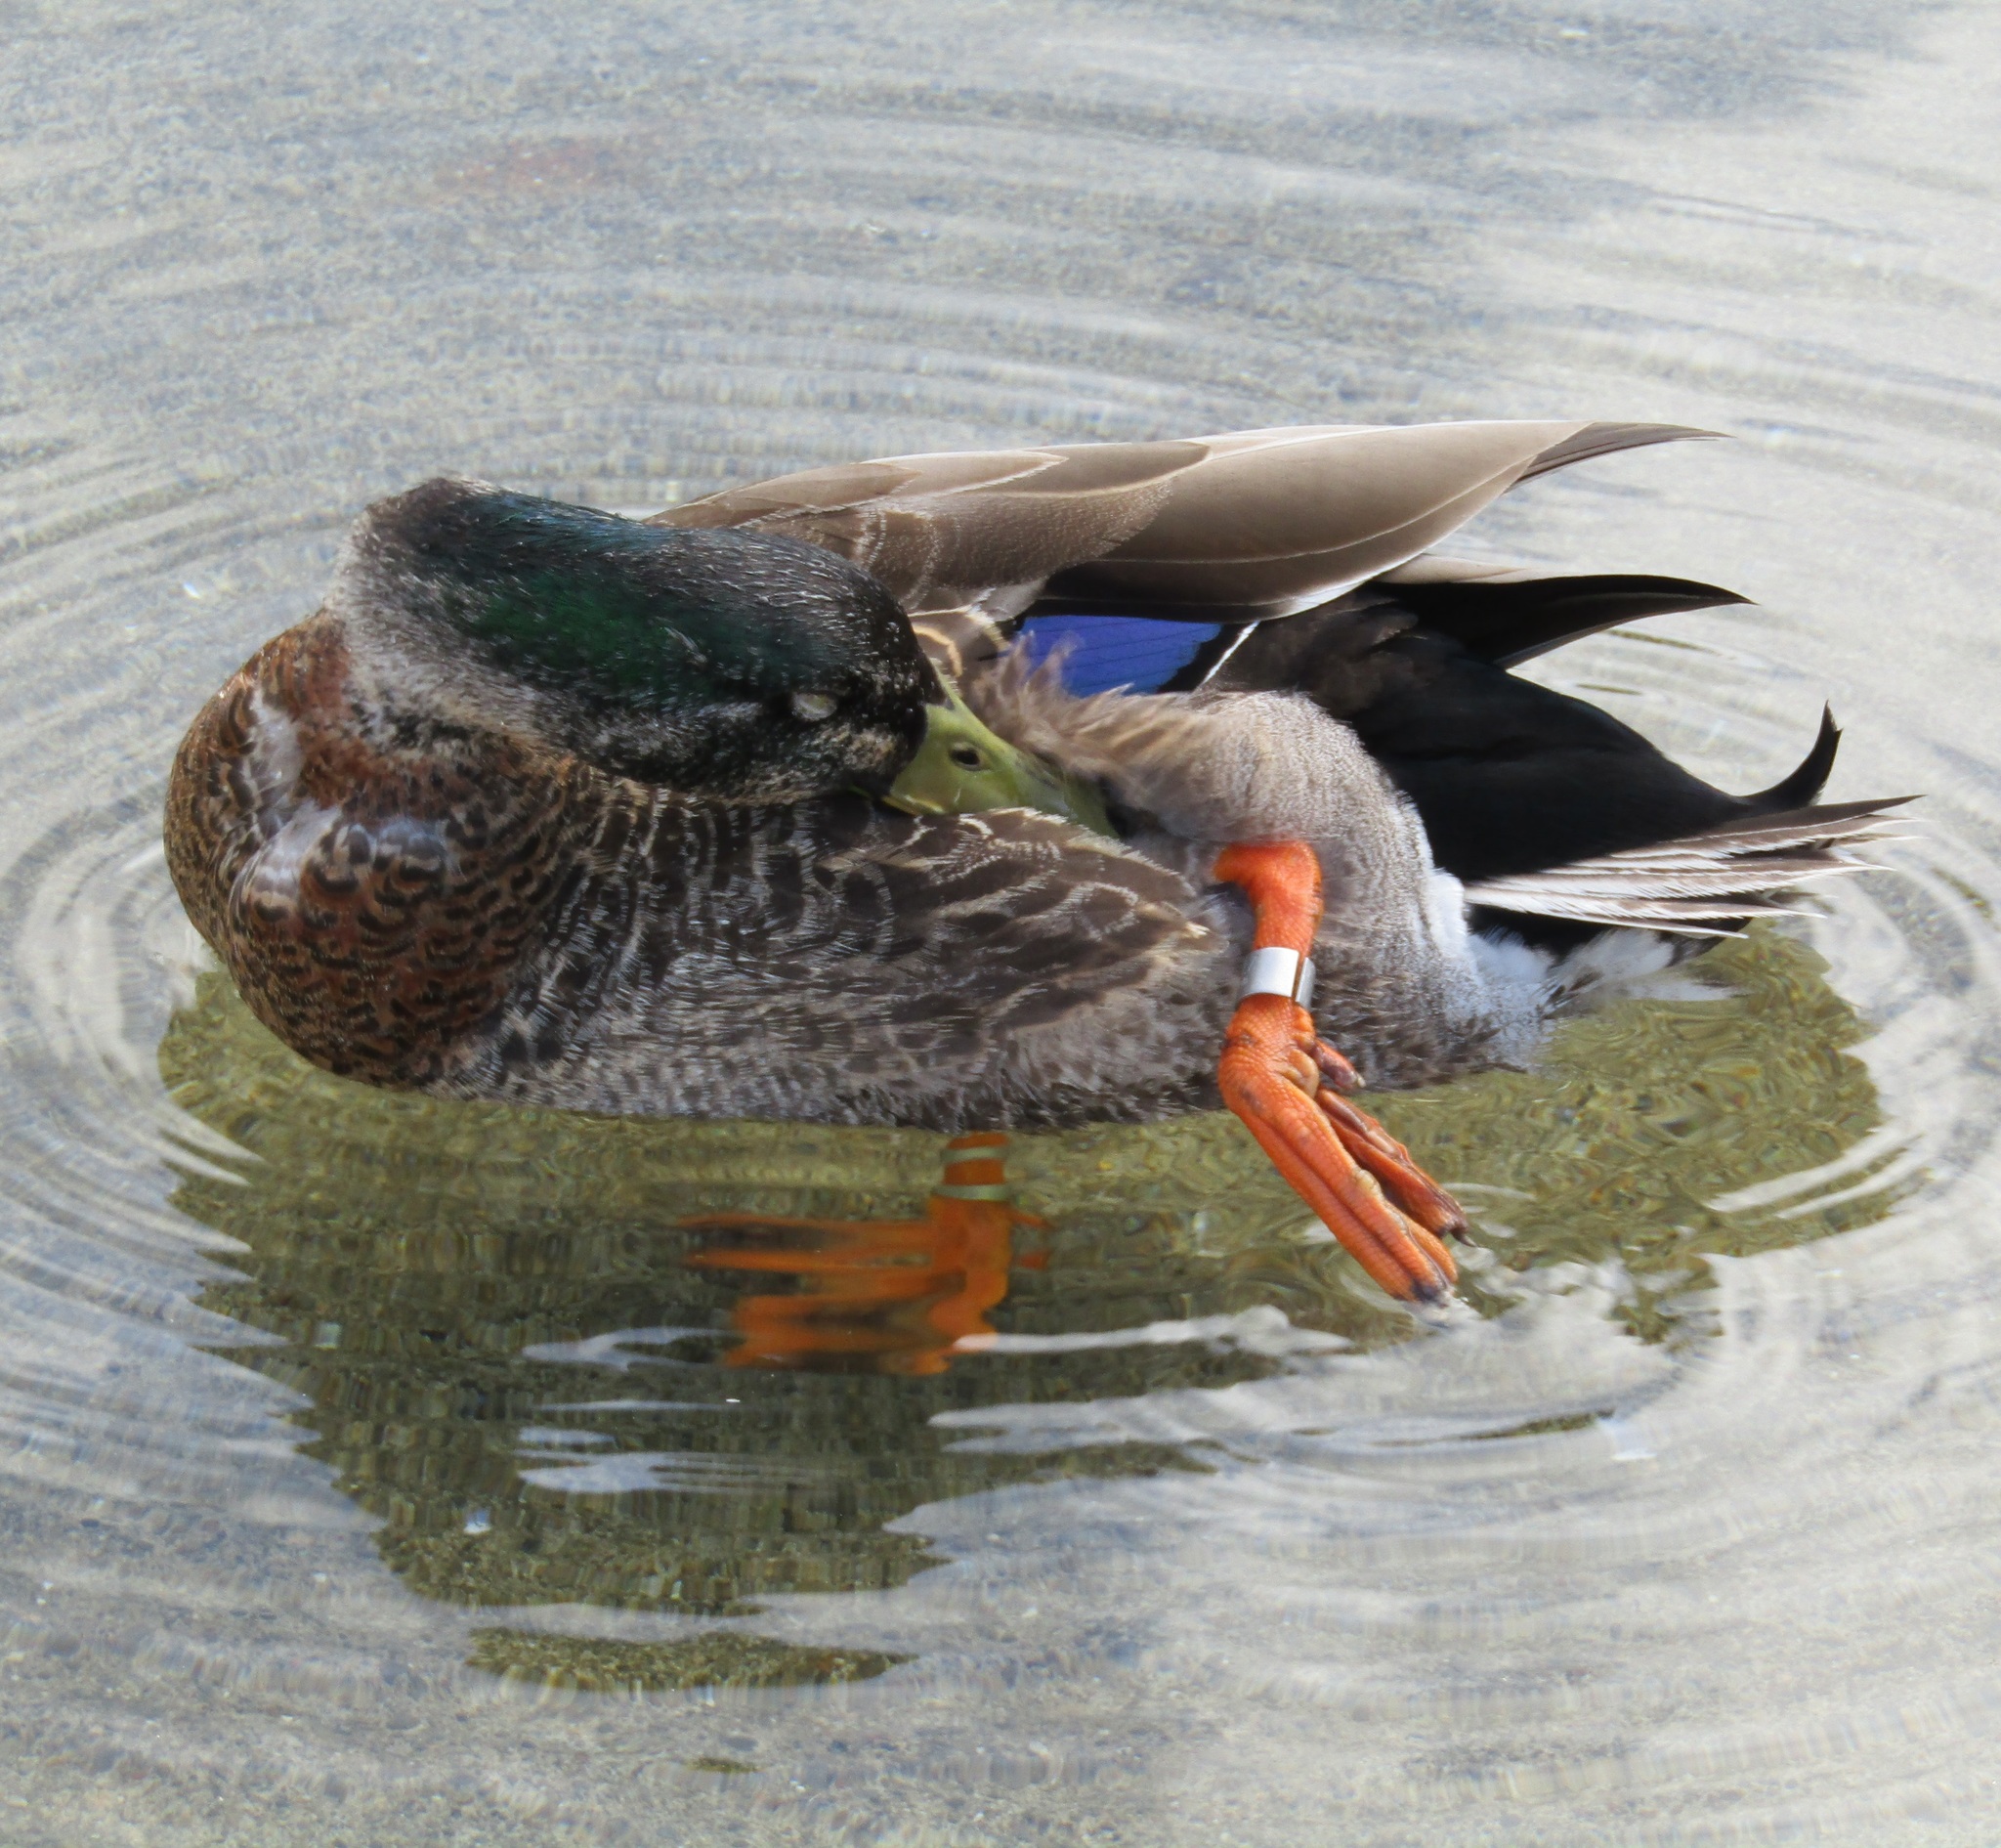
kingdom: Animalia
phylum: Chordata
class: Aves
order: Anseriformes
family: Anatidae
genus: Anas
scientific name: Anas
